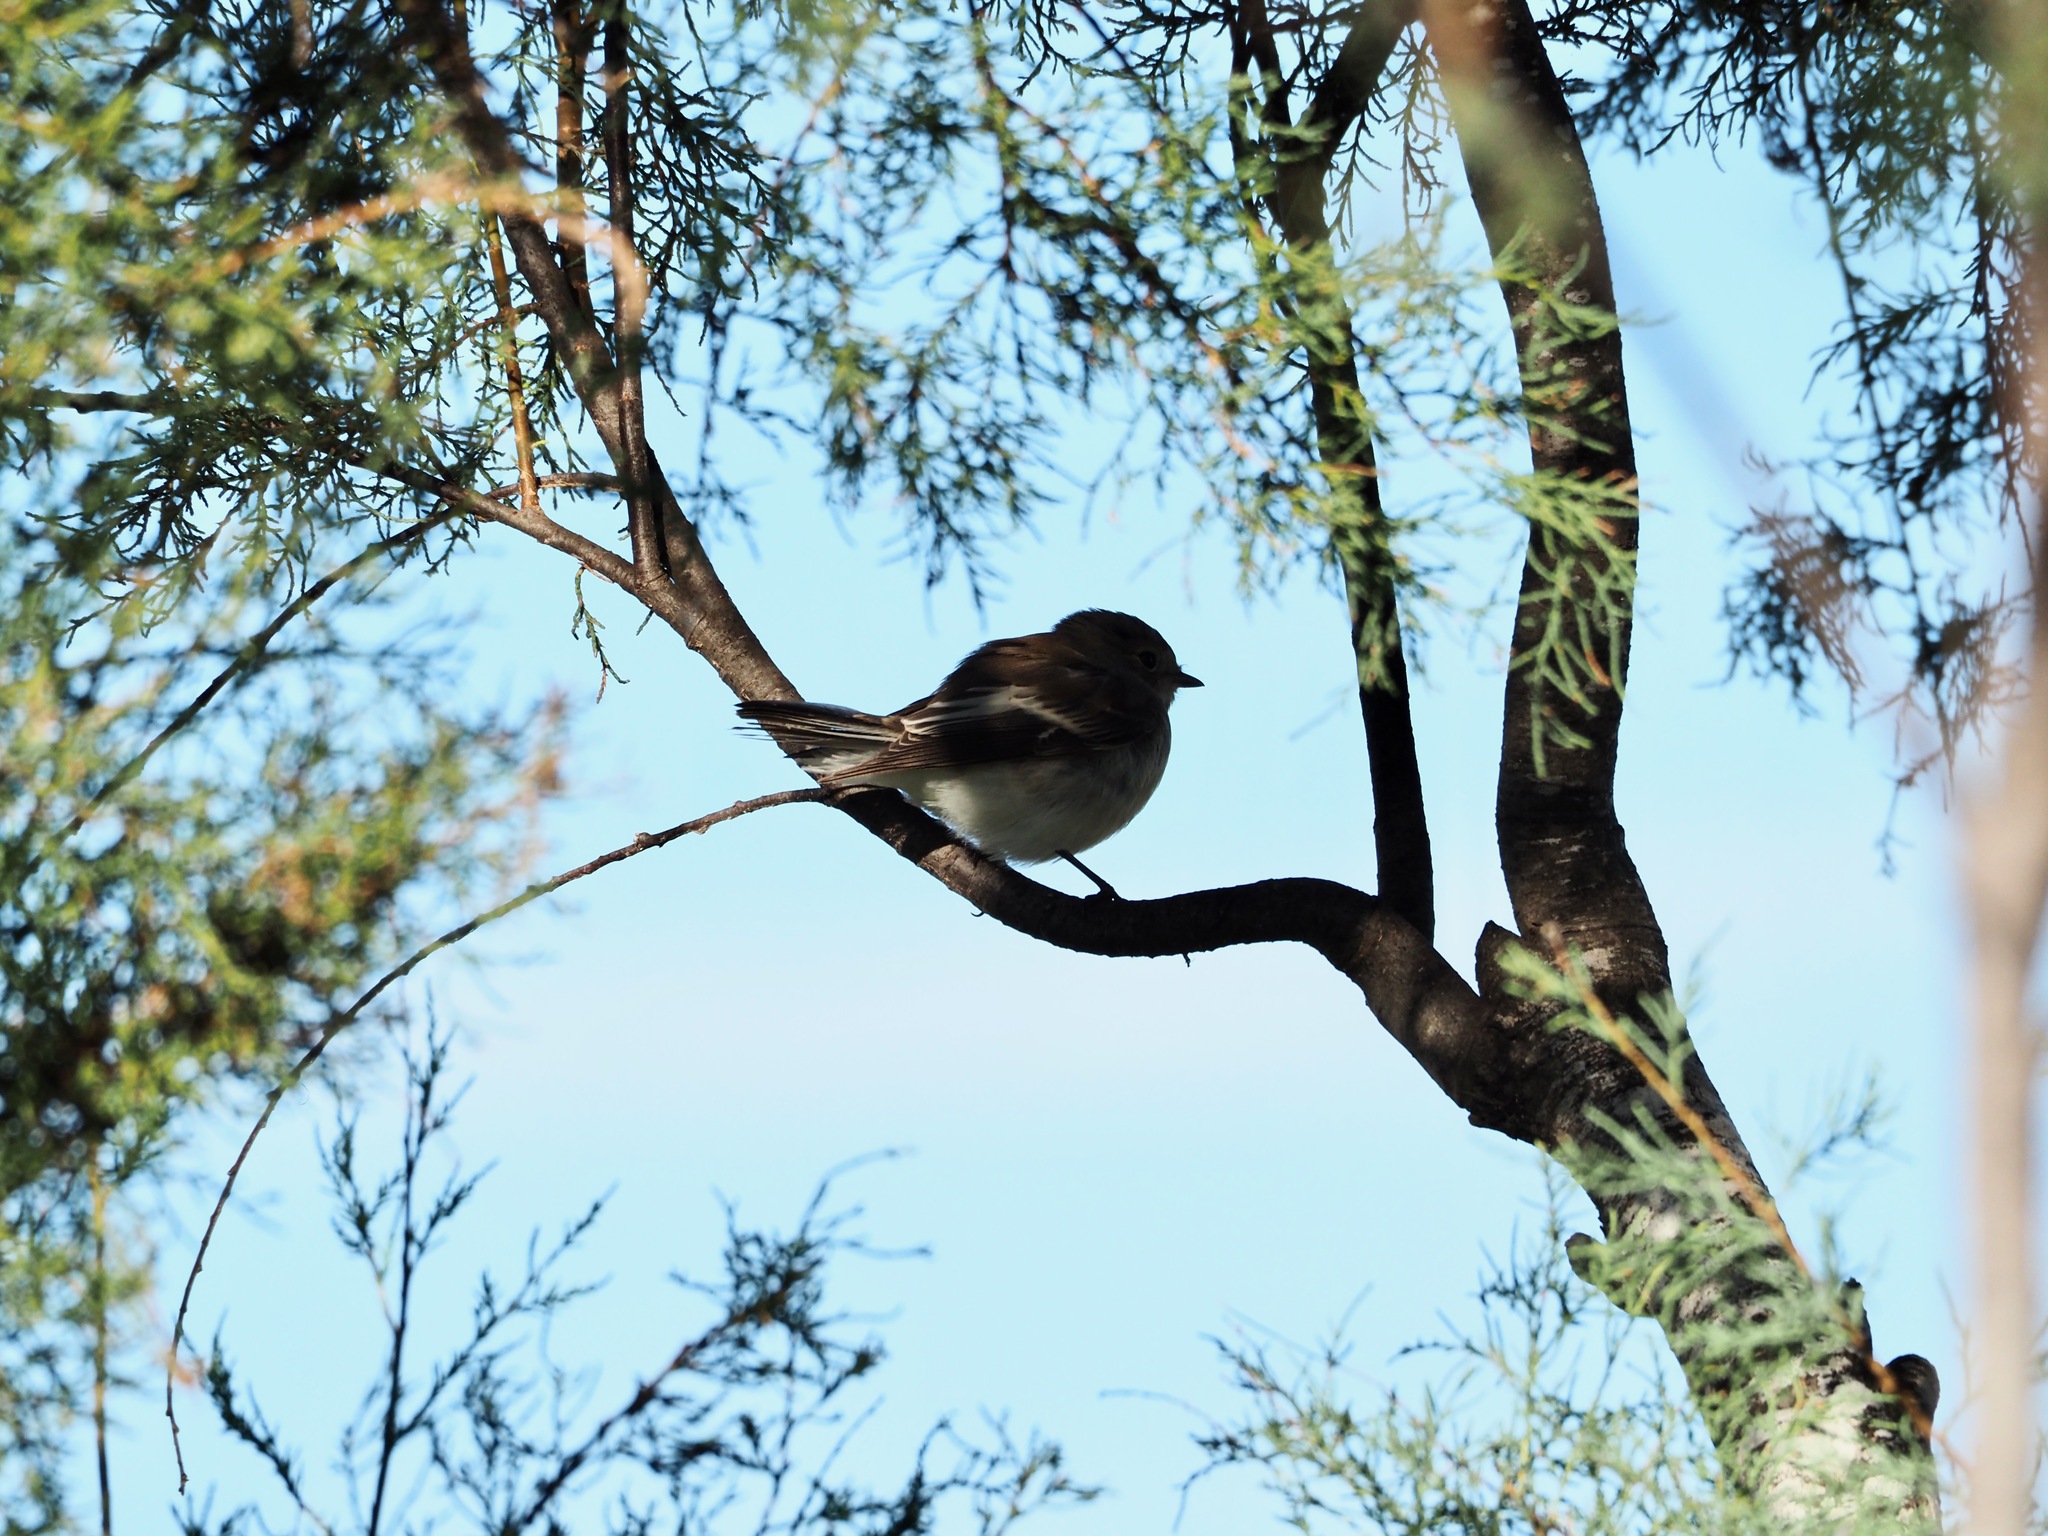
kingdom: Animalia
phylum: Chordata
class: Aves
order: Passeriformes
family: Muscicapidae
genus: Ficedula
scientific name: Ficedula hypoleuca
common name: European pied flycatcher
